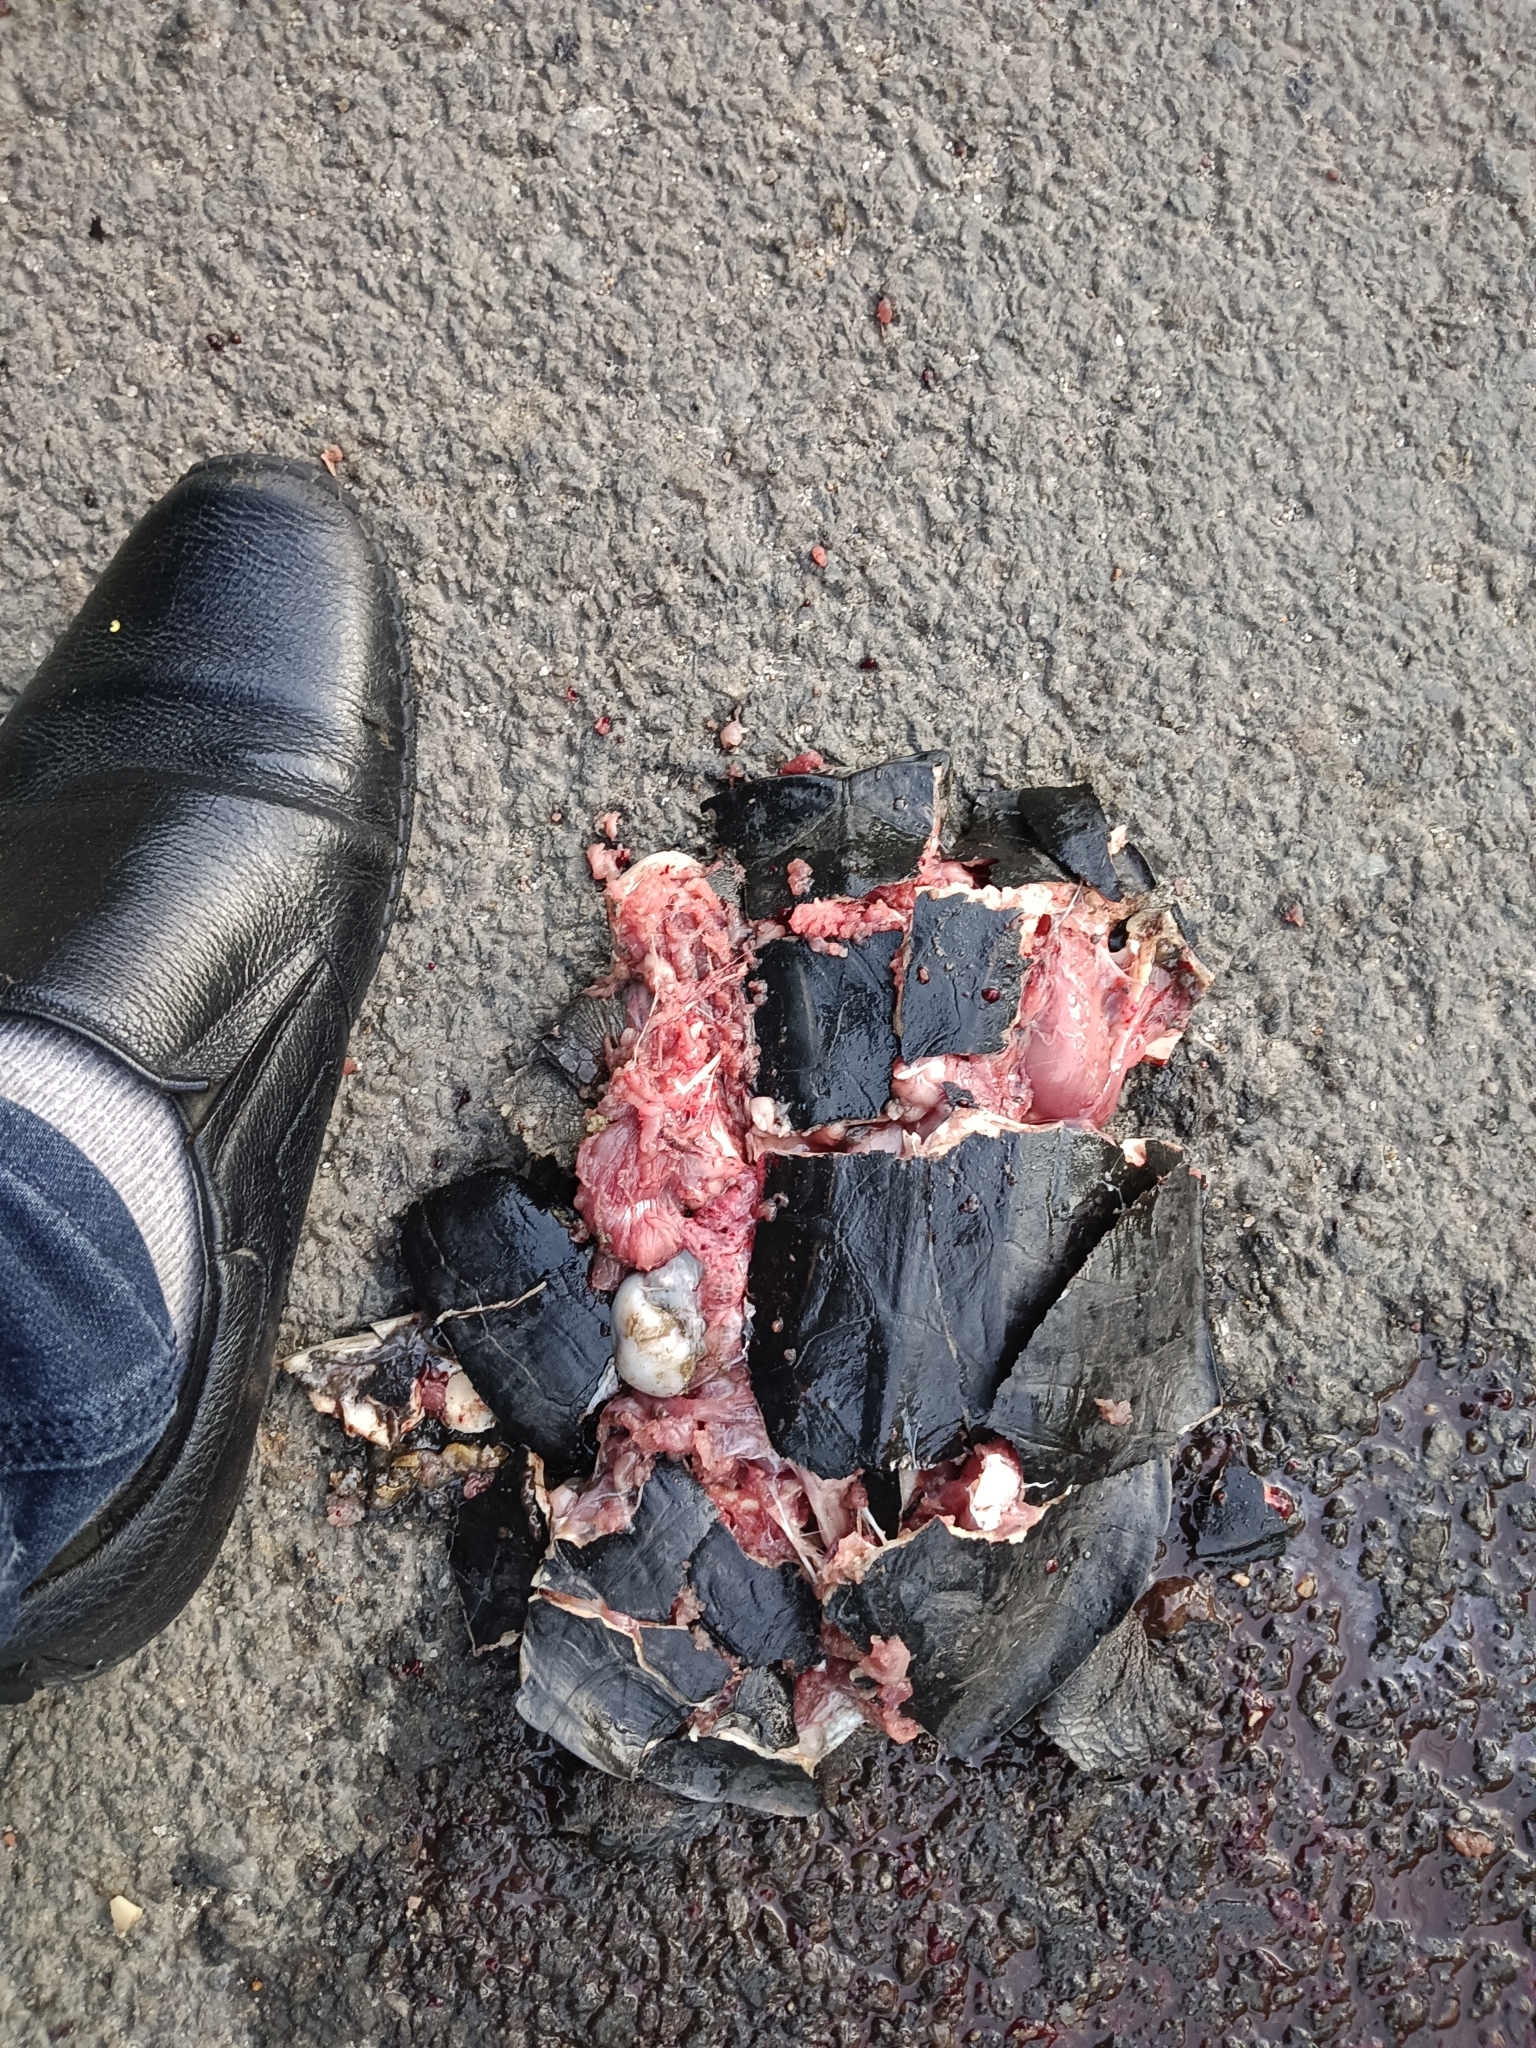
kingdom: Animalia
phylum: Chordata
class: Testudines
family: Geoemydidae
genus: Melanochelys
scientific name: Melanochelys trijuga
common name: Indian black turtle
